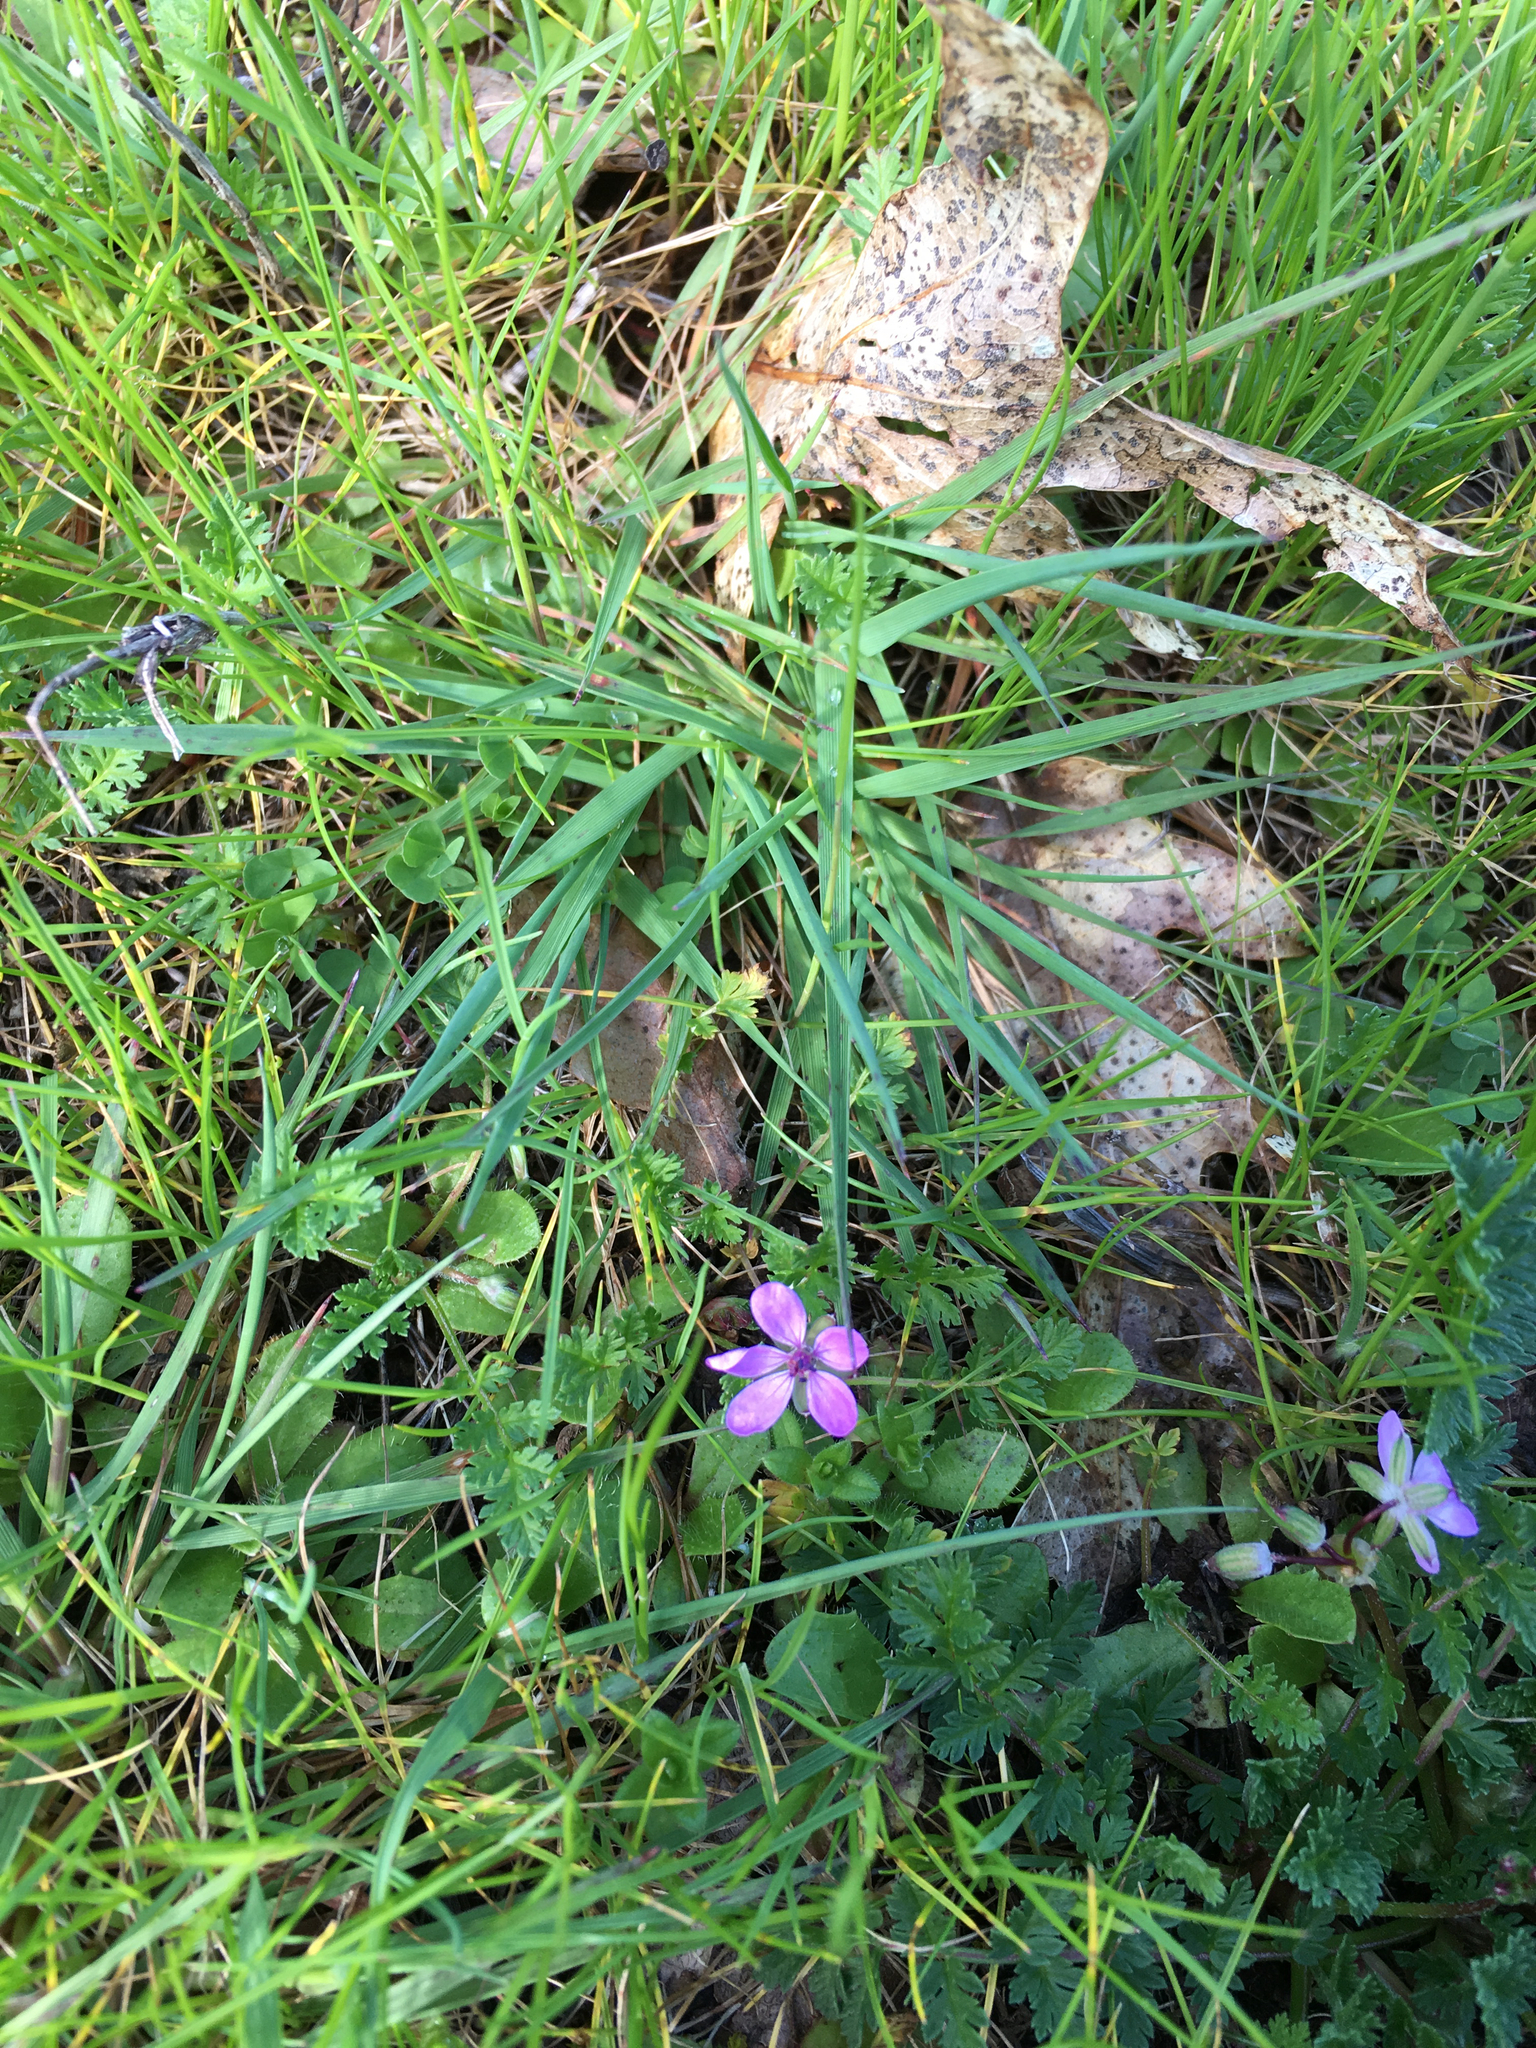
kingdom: Plantae
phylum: Tracheophyta
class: Magnoliopsida
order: Geraniales
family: Geraniaceae
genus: Erodium
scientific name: Erodium cicutarium
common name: Common stork's-bill
